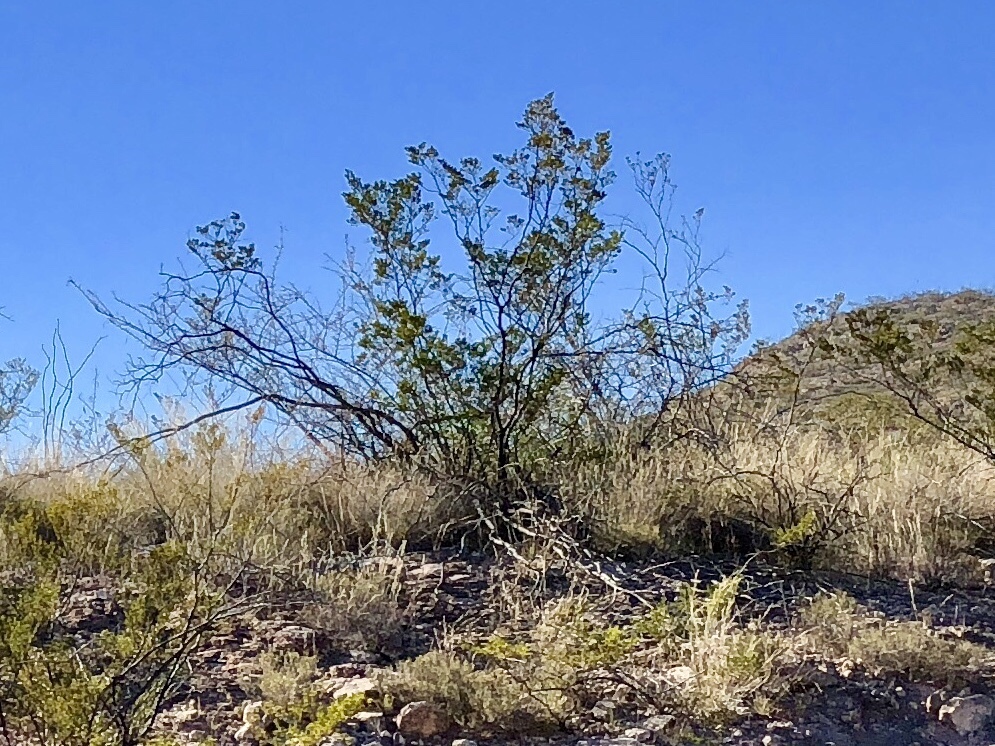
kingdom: Plantae
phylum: Tracheophyta
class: Magnoliopsida
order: Zygophyllales
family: Zygophyllaceae
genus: Larrea
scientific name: Larrea tridentata
